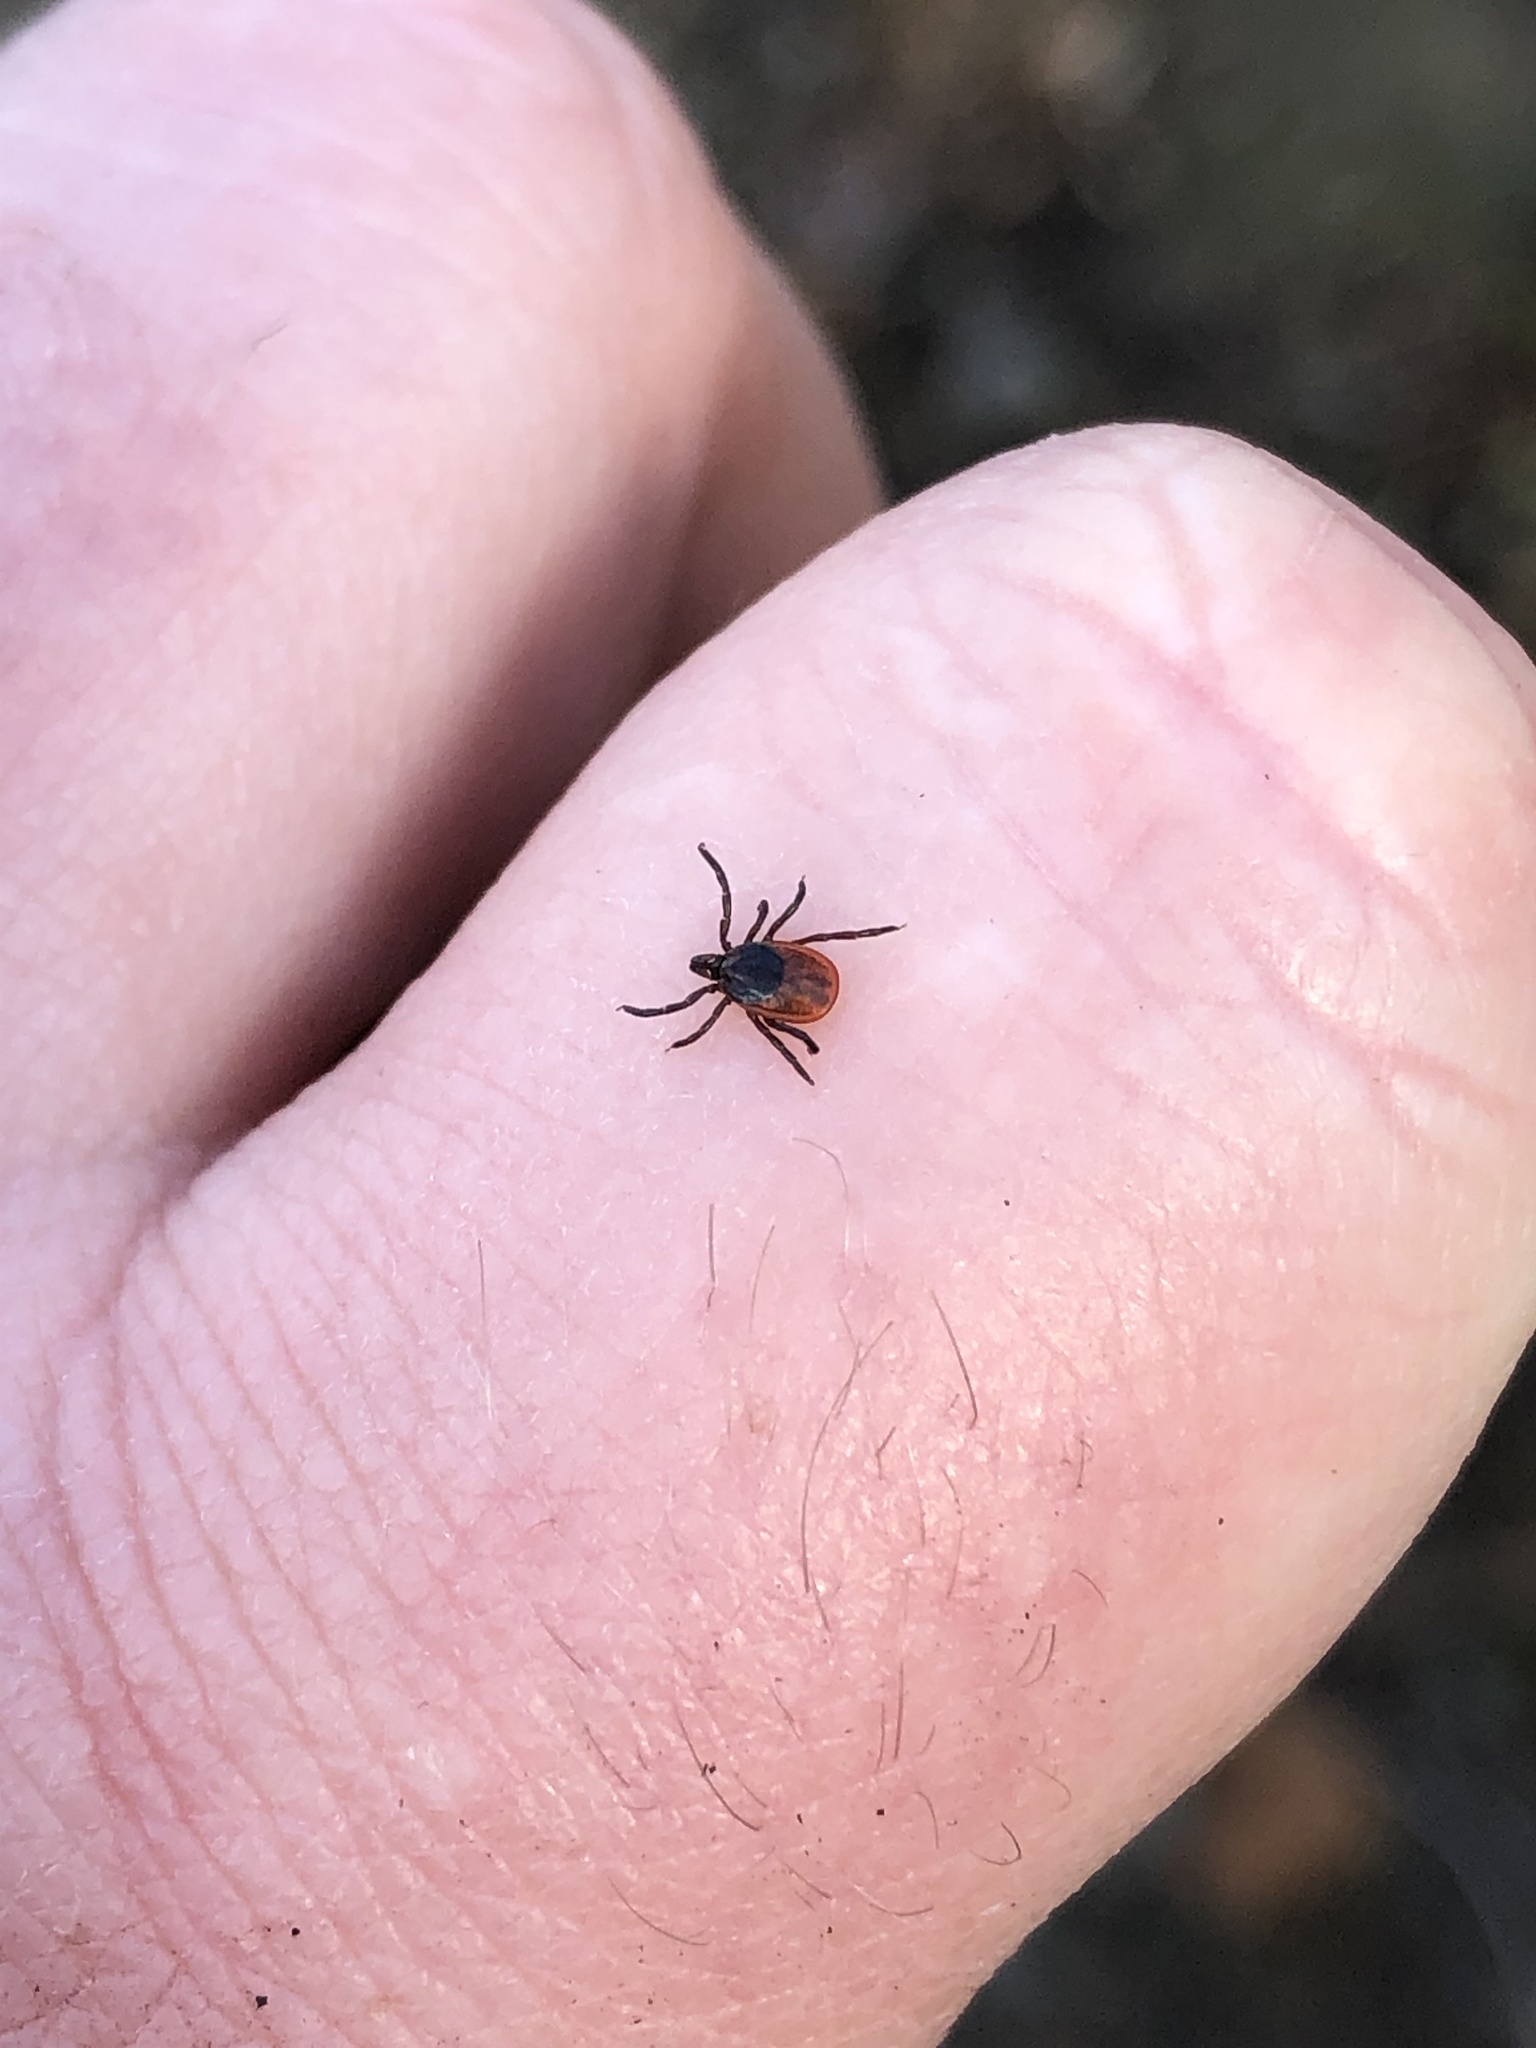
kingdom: Animalia
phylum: Arthropoda
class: Arachnida
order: Ixodida
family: Ixodidae
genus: Ixodes
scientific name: Ixodes scapularis
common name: Black legged tick
